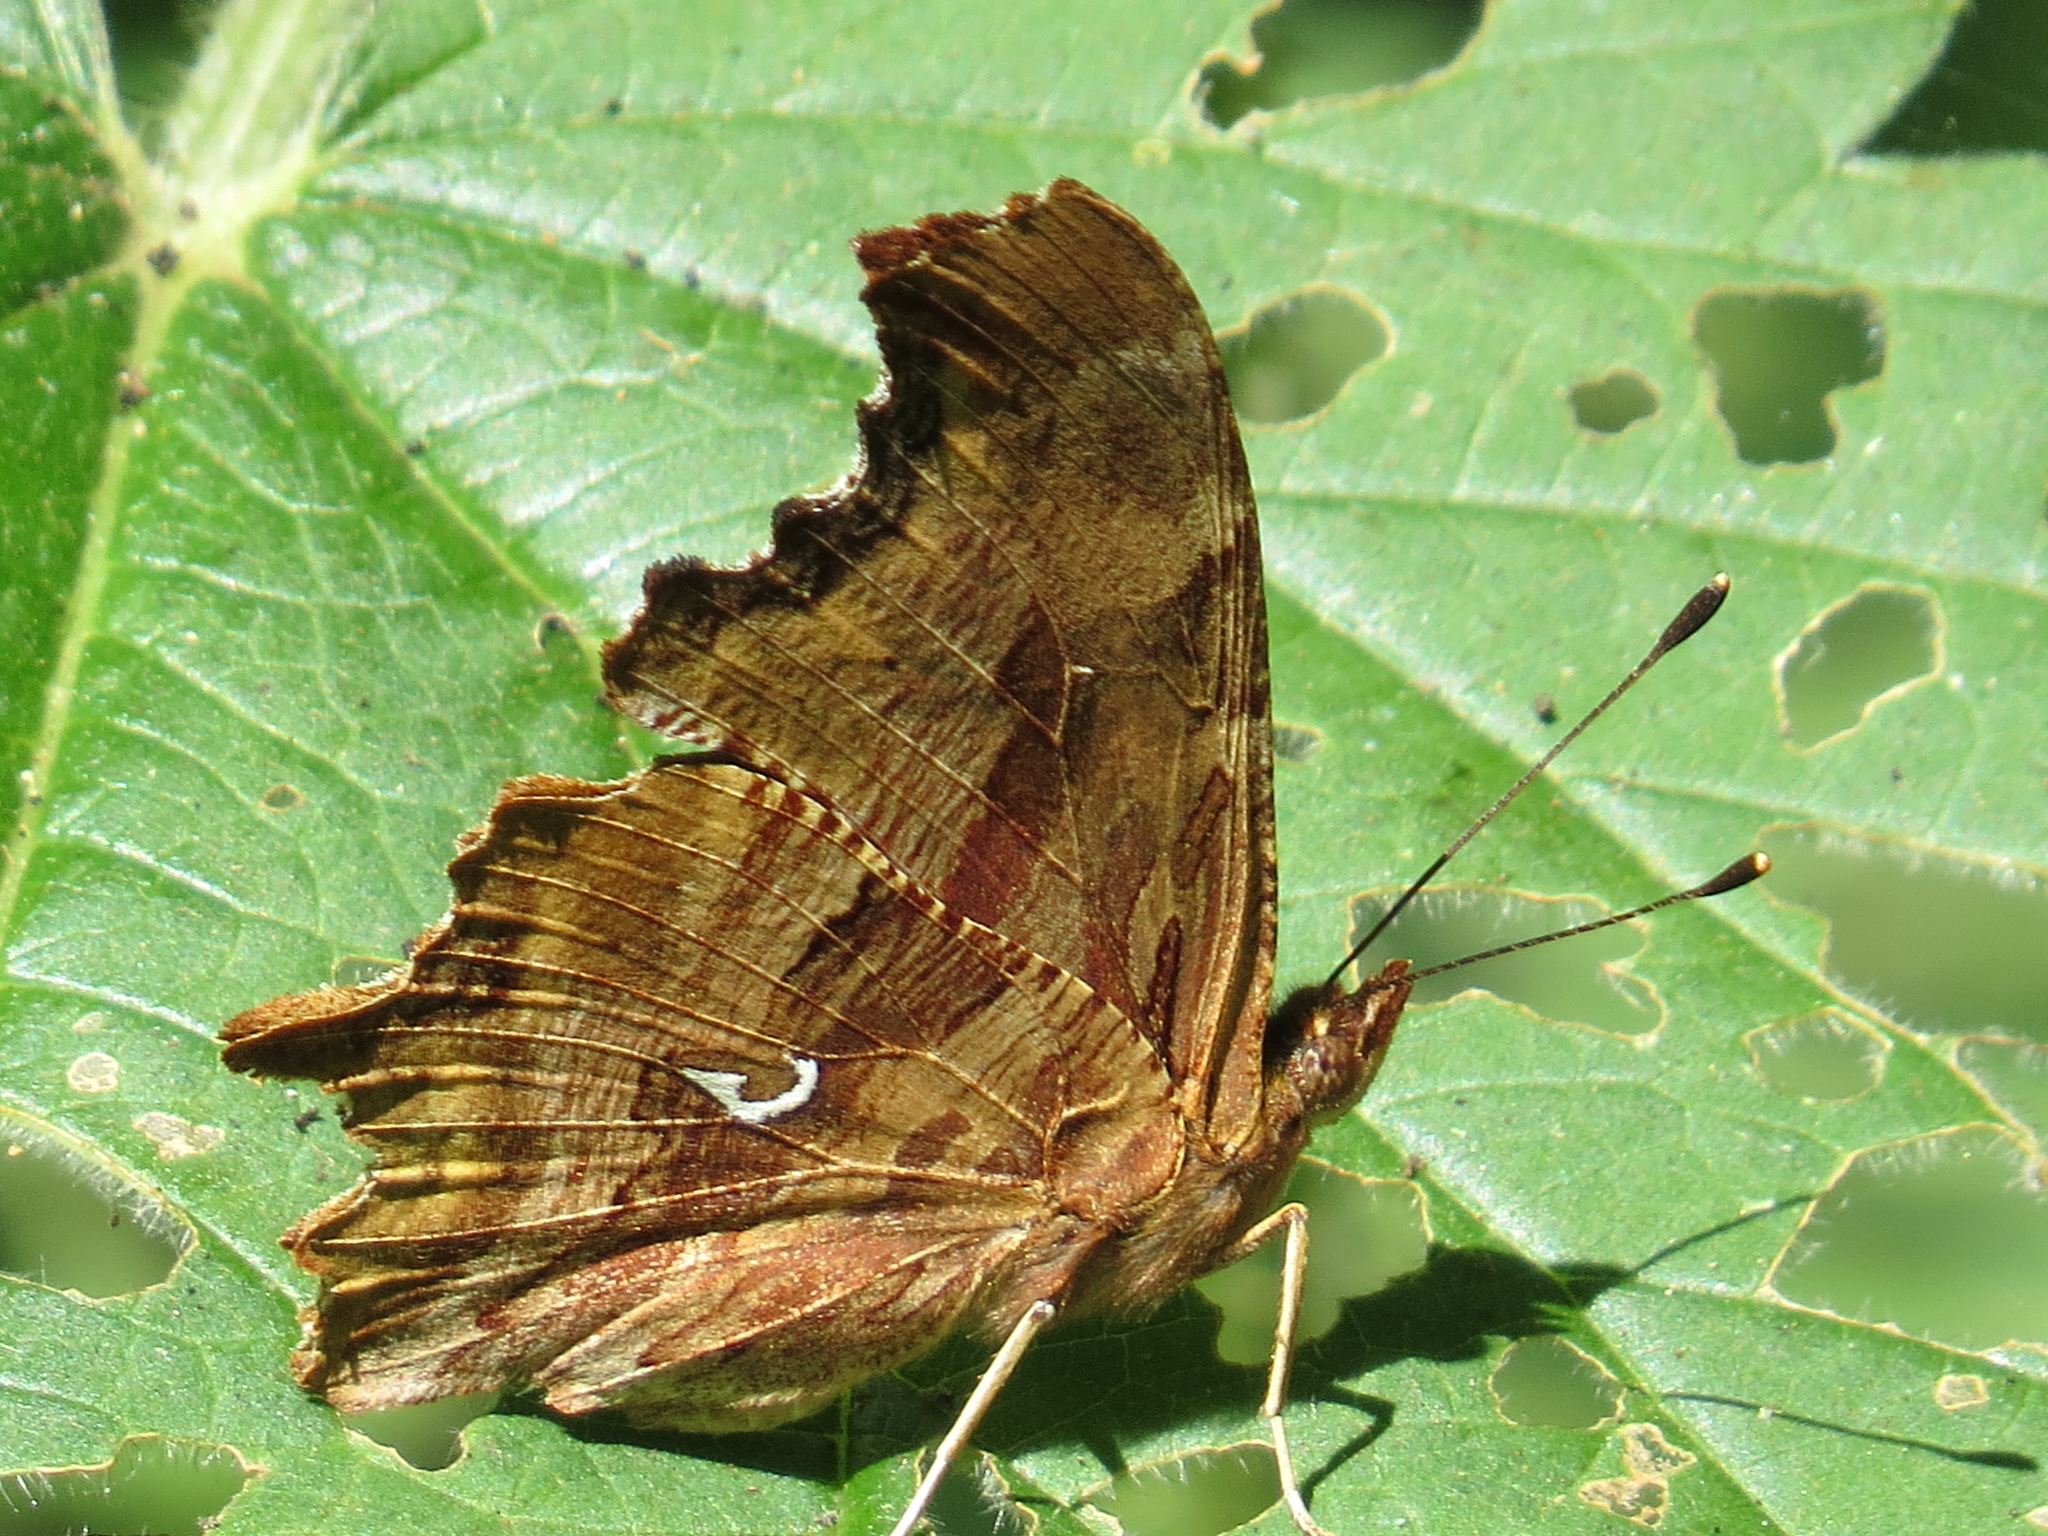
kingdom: Animalia
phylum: Arthropoda
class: Insecta
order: Lepidoptera
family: Nymphalidae
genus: Polygonia
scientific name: Polygonia satyrus
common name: Satyr angle wing
